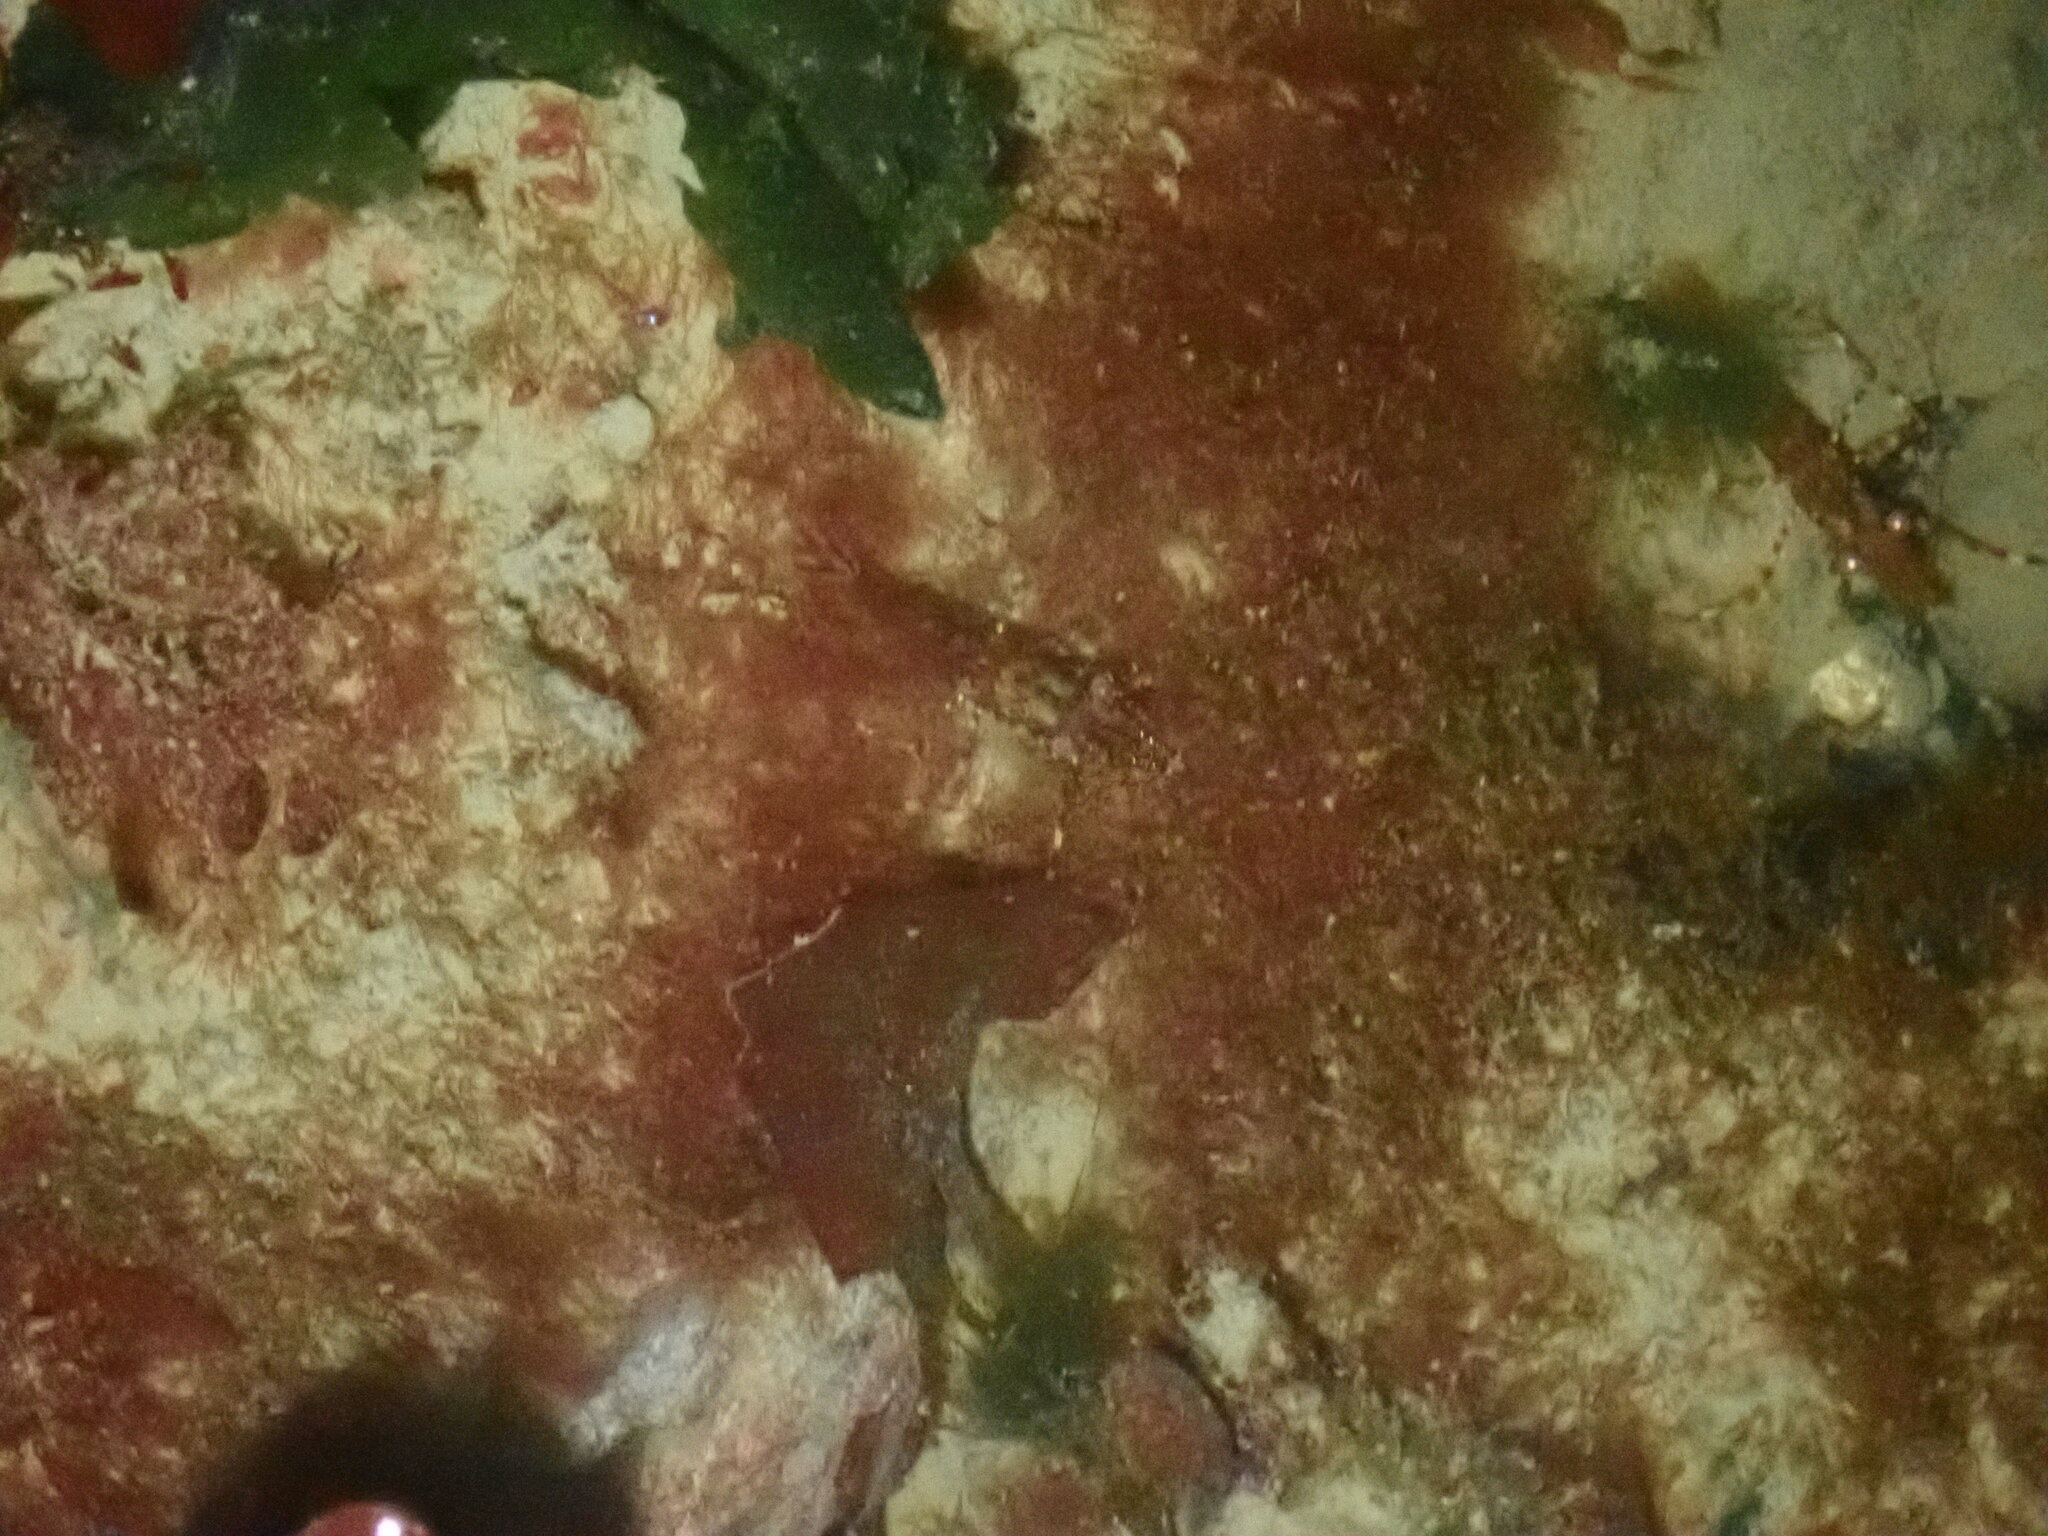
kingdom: Animalia
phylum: Arthropoda
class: Malacostraca
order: Decapoda
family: Pandalidae
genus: Pandalus
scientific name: Pandalus danae
